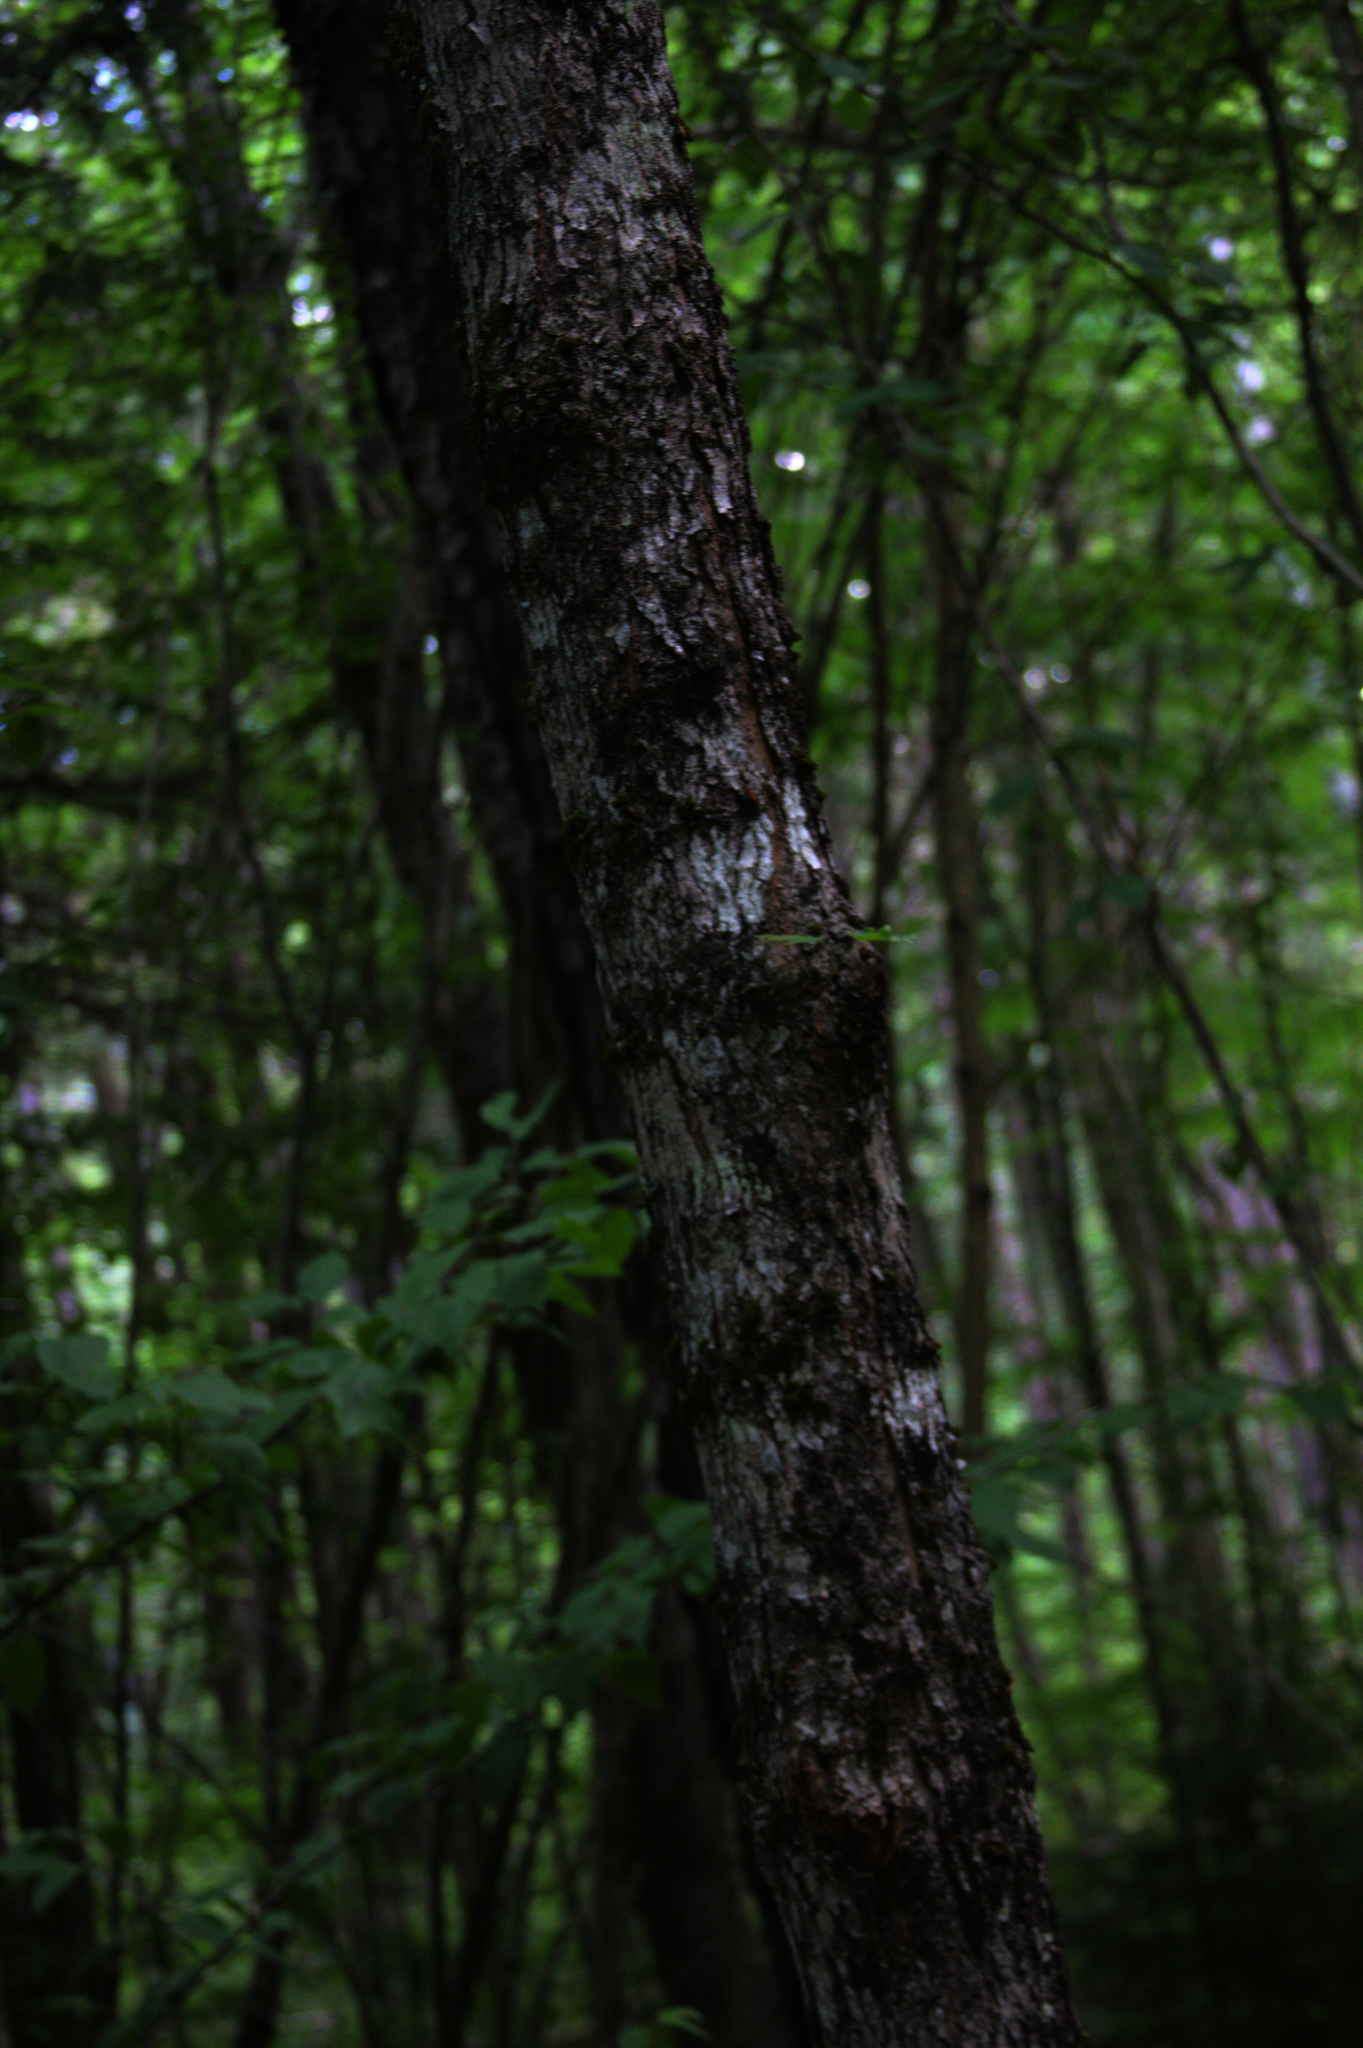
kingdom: Plantae
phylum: Tracheophyta
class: Magnoliopsida
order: Sapindales
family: Sapindaceae
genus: Acer
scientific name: Acer saccharum
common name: Sugar maple
